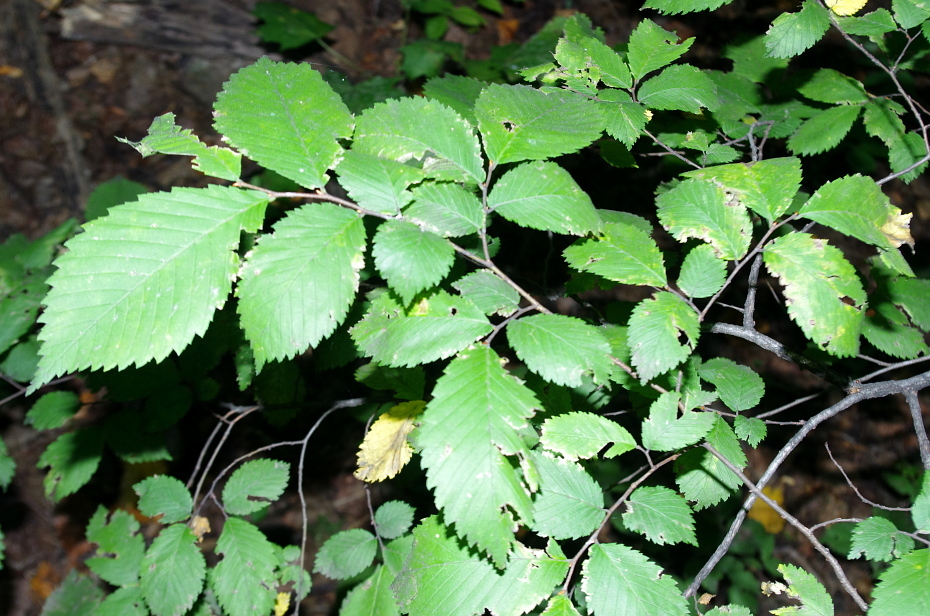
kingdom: Plantae
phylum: Tracheophyta
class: Magnoliopsida
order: Rosales
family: Ulmaceae
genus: Ulmus
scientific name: Ulmus glabra
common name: Wych elm
